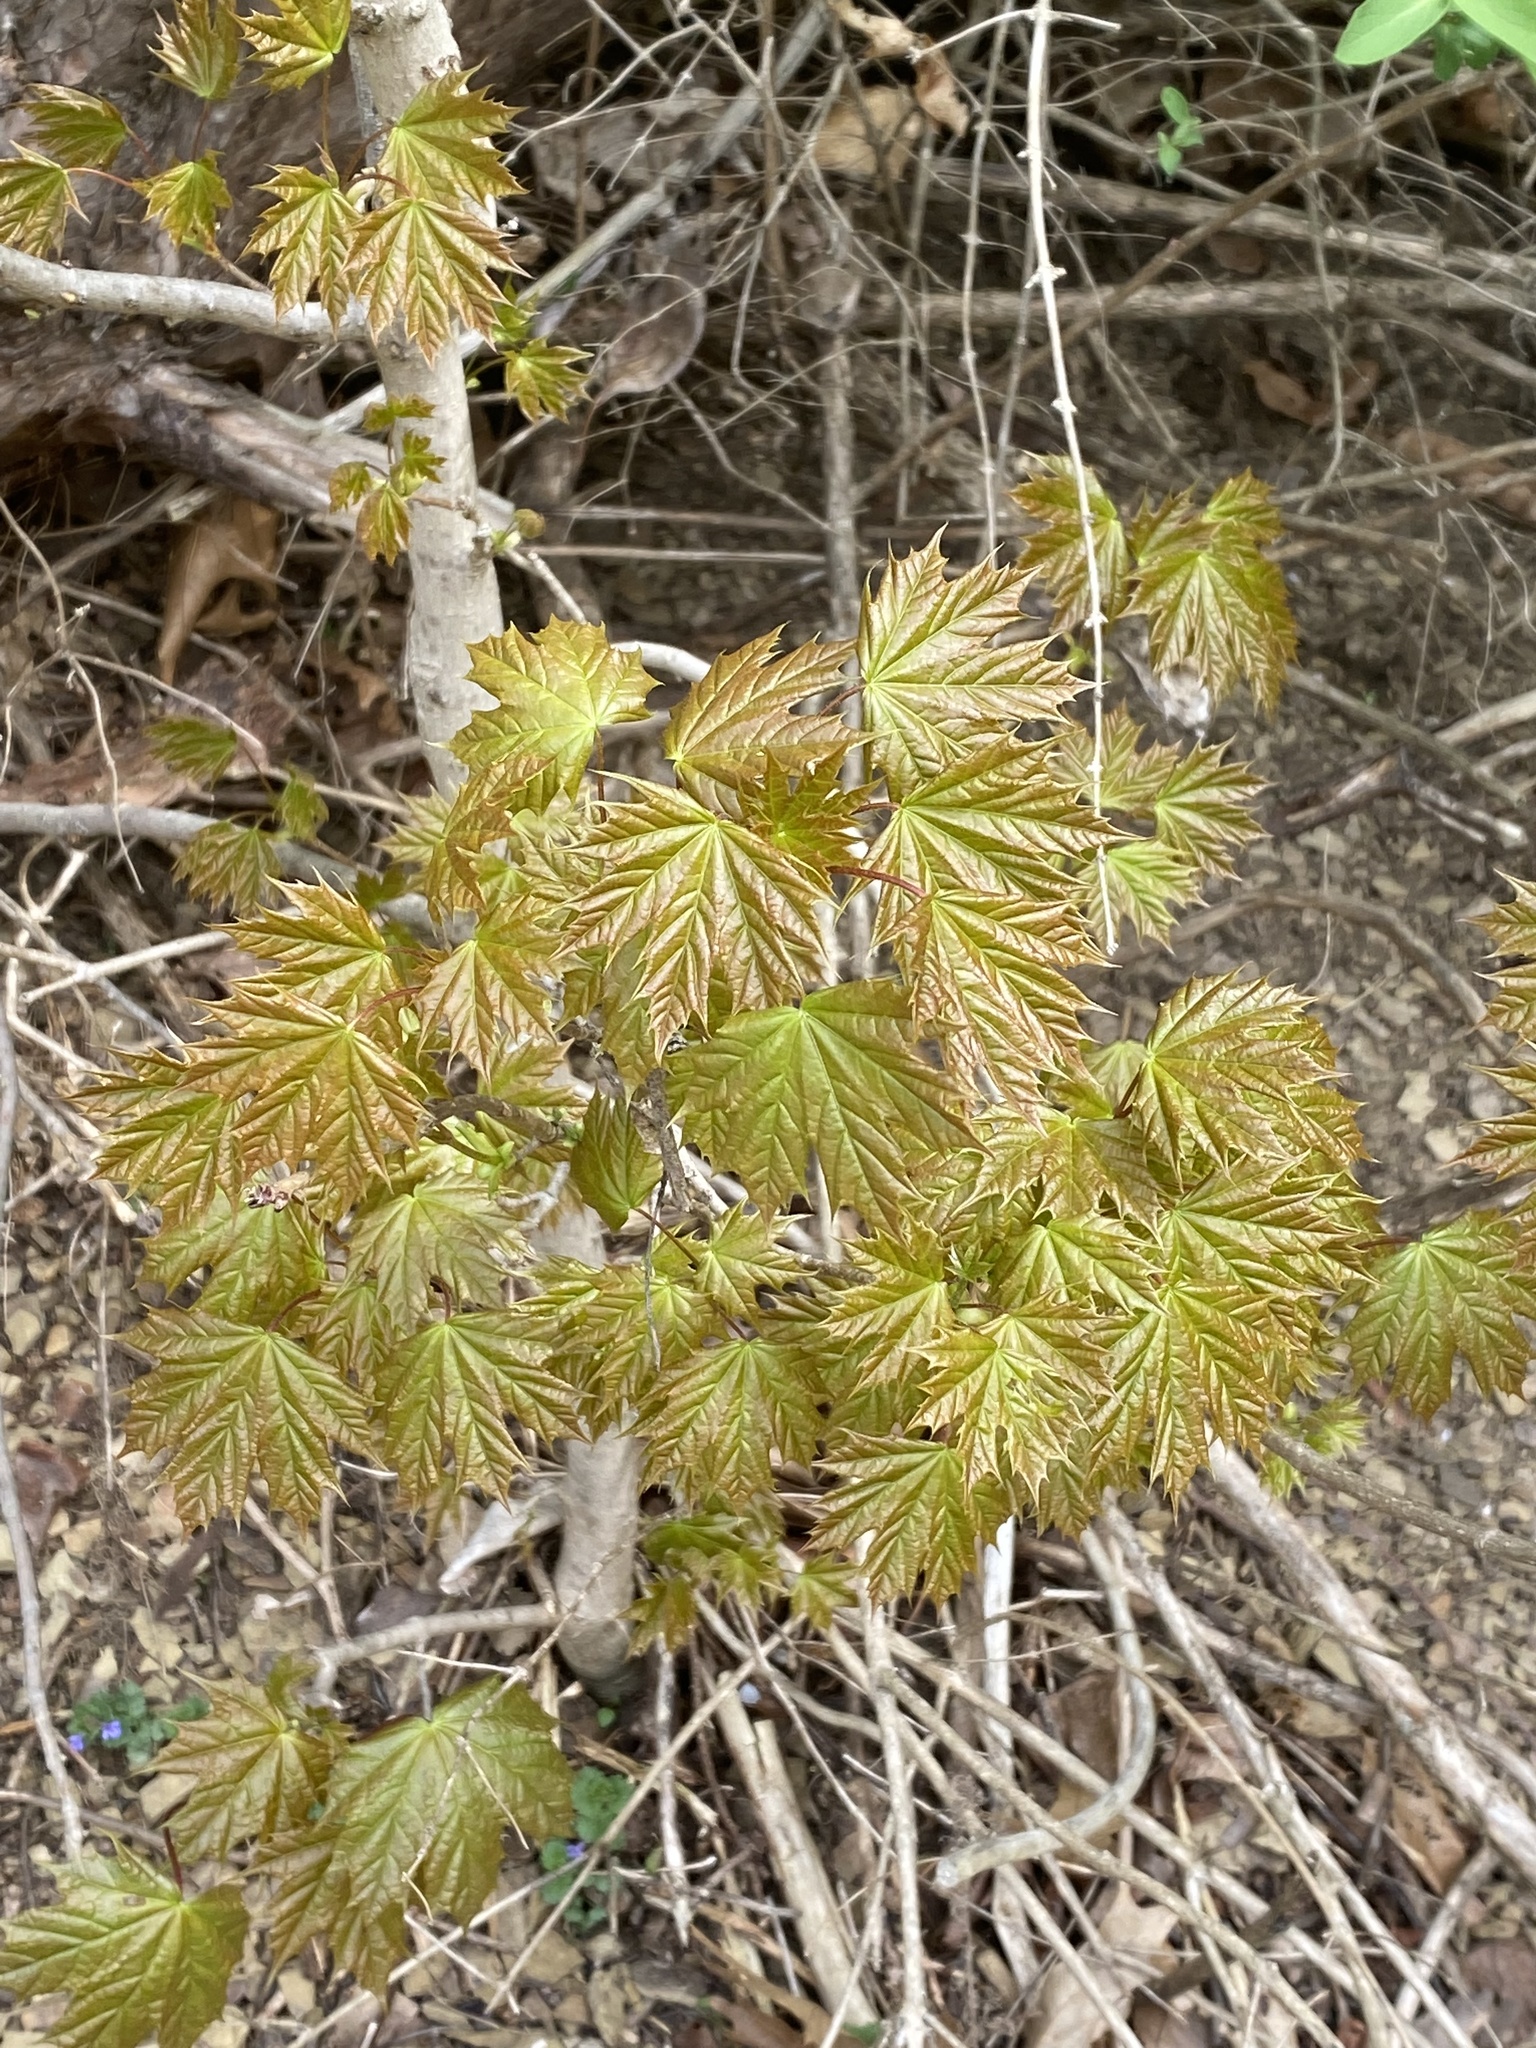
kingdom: Plantae
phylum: Tracheophyta
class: Magnoliopsida
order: Sapindales
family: Sapindaceae
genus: Acer
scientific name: Acer platanoides
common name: Norway maple
